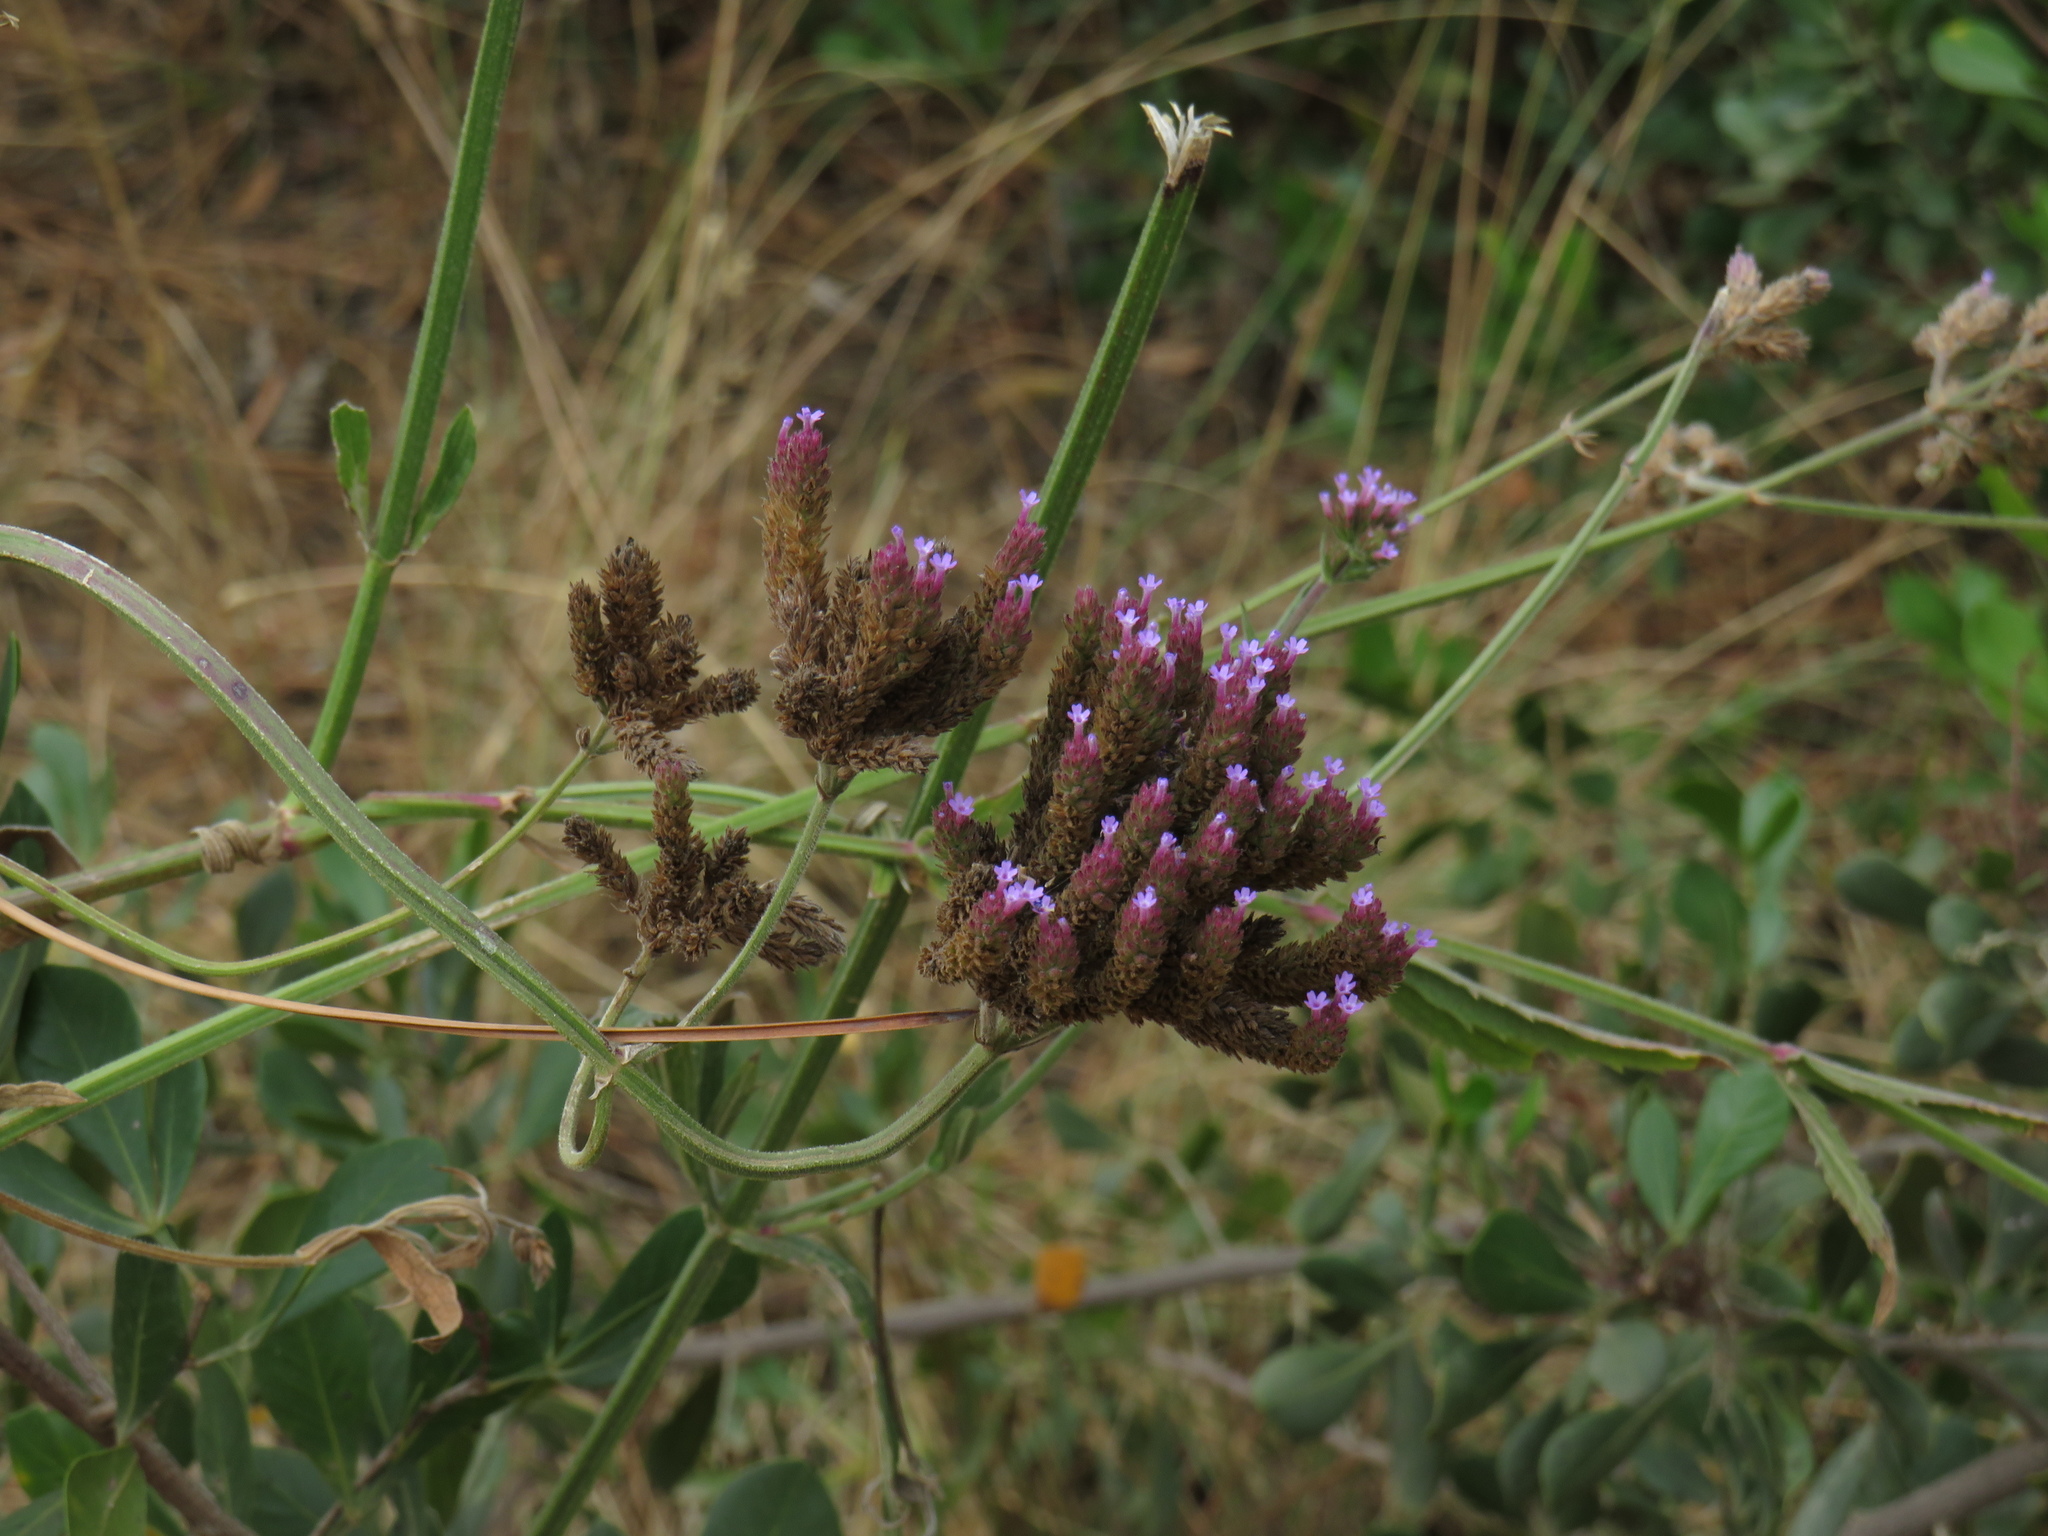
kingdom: Plantae
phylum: Tracheophyta
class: Magnoliopsida
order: Lamiales
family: Verbenaceae
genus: Verbena
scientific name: Verbena bonariensis
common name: Purpletop vervain
